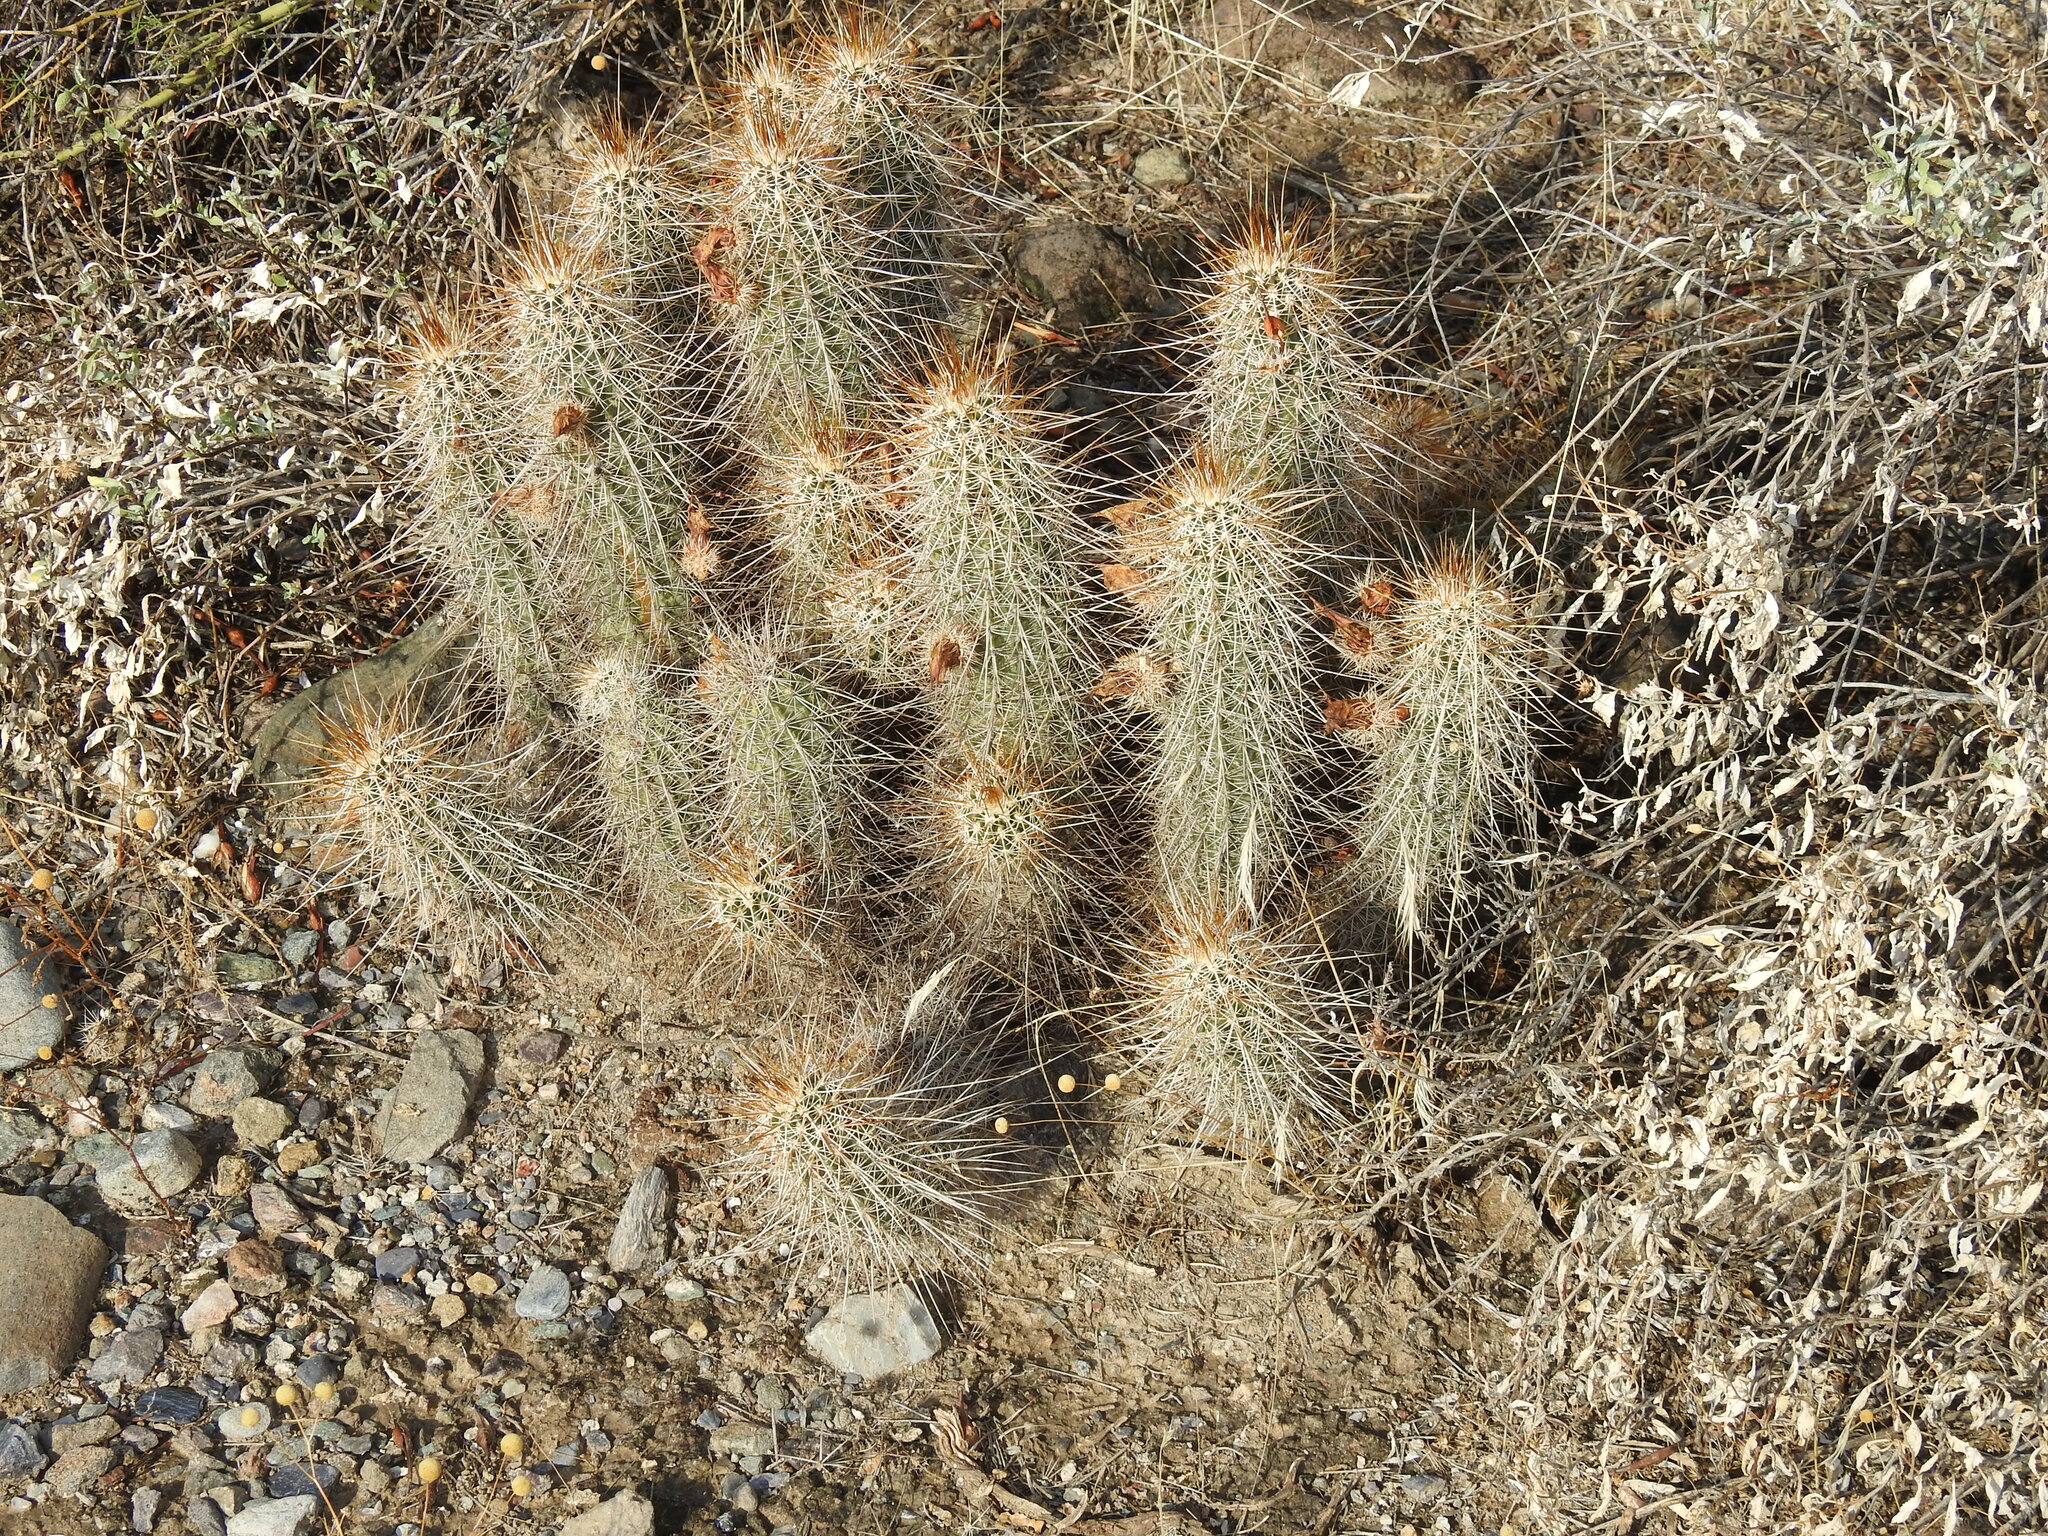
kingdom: Plantae
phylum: Tracheophyta
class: Magnoliopsida
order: Caryophyllales
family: Cactaceae
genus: Echinocereus
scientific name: Echinocereus engelmannii
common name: Engelmann's hedgehog cactus
